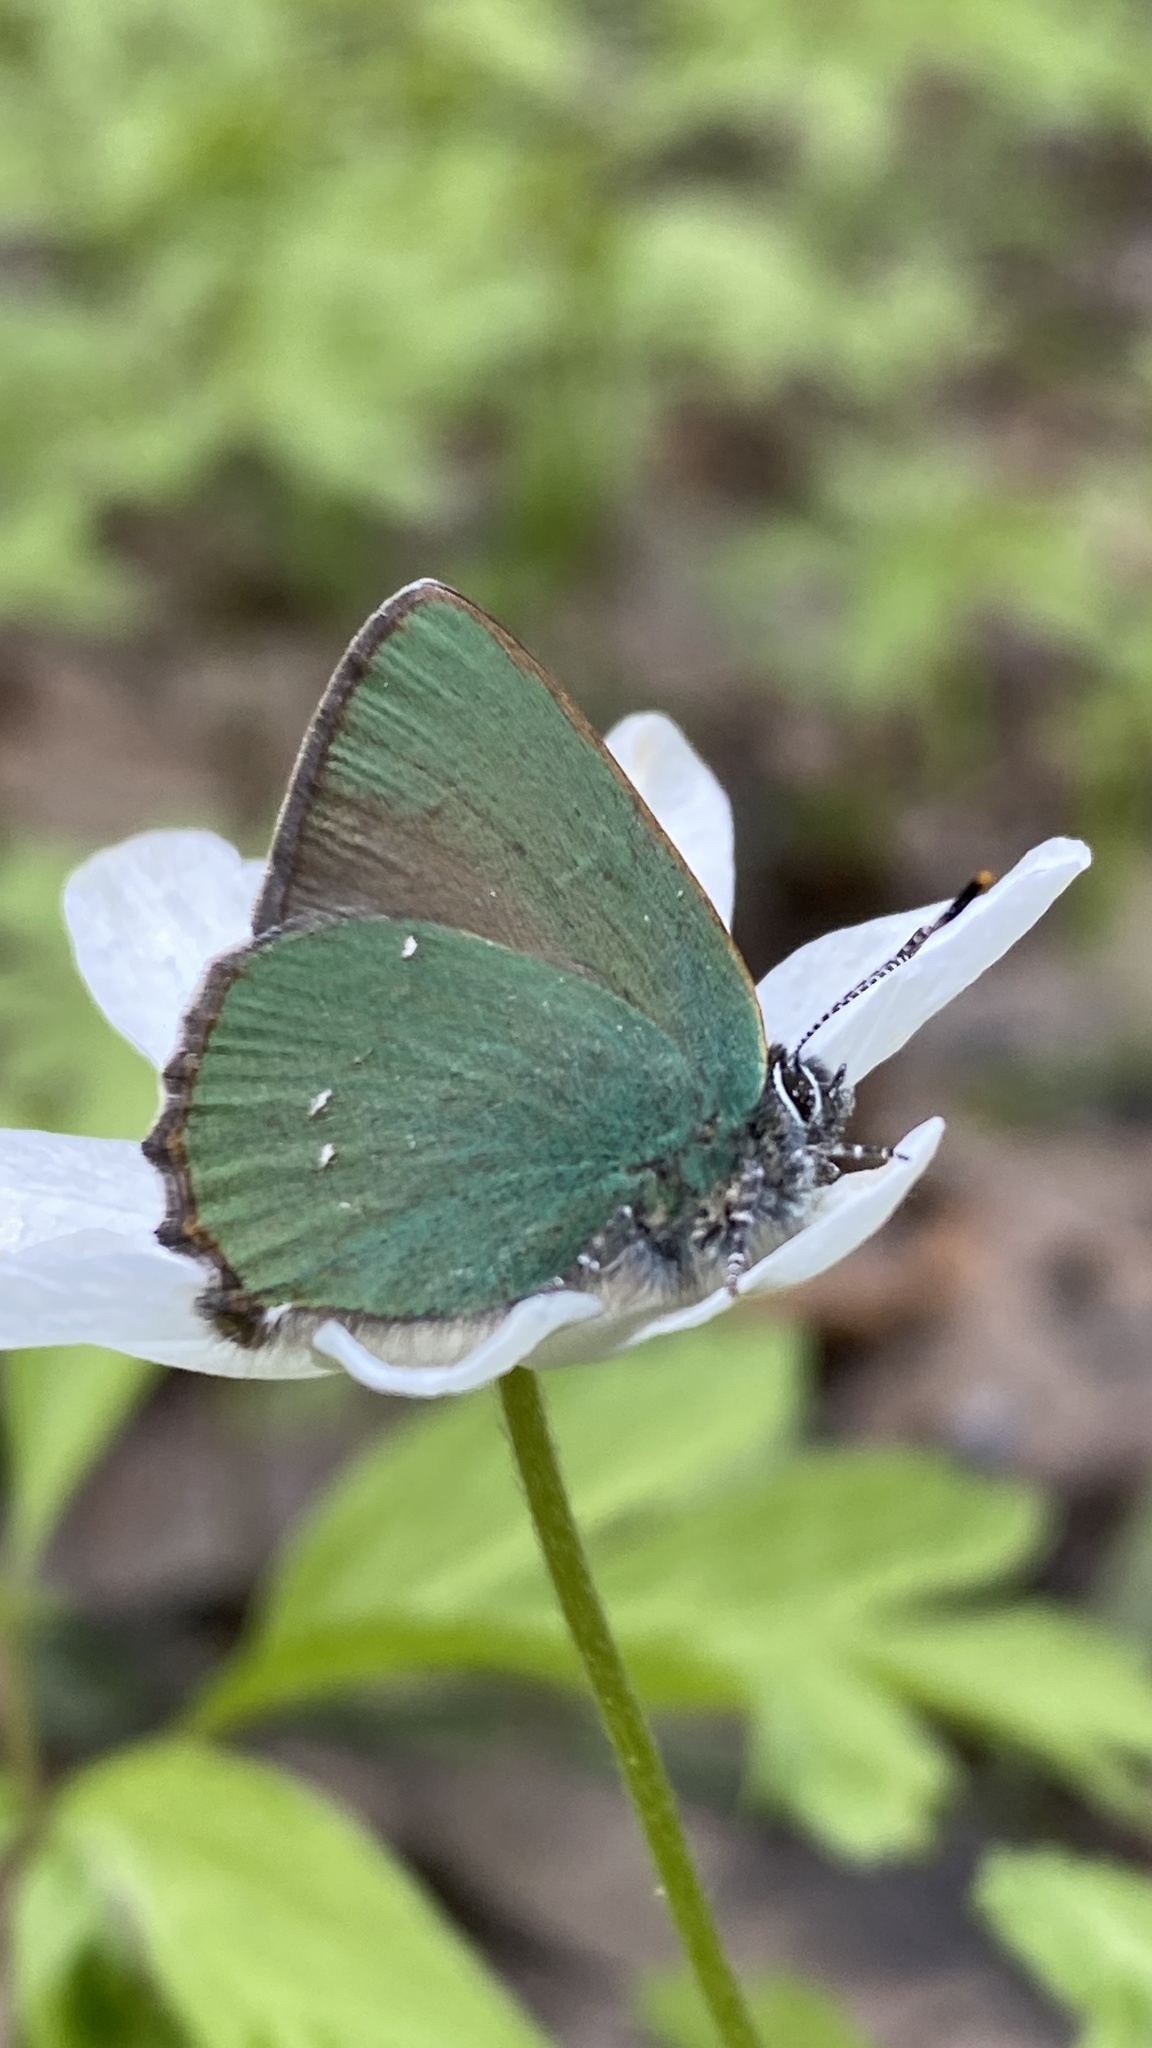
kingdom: Animalia
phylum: Arthropoda
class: Insecta
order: Lepidoptera
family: Lycaenidae
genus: Callophrys
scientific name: Callophrys rubi
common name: Green hairstreak
